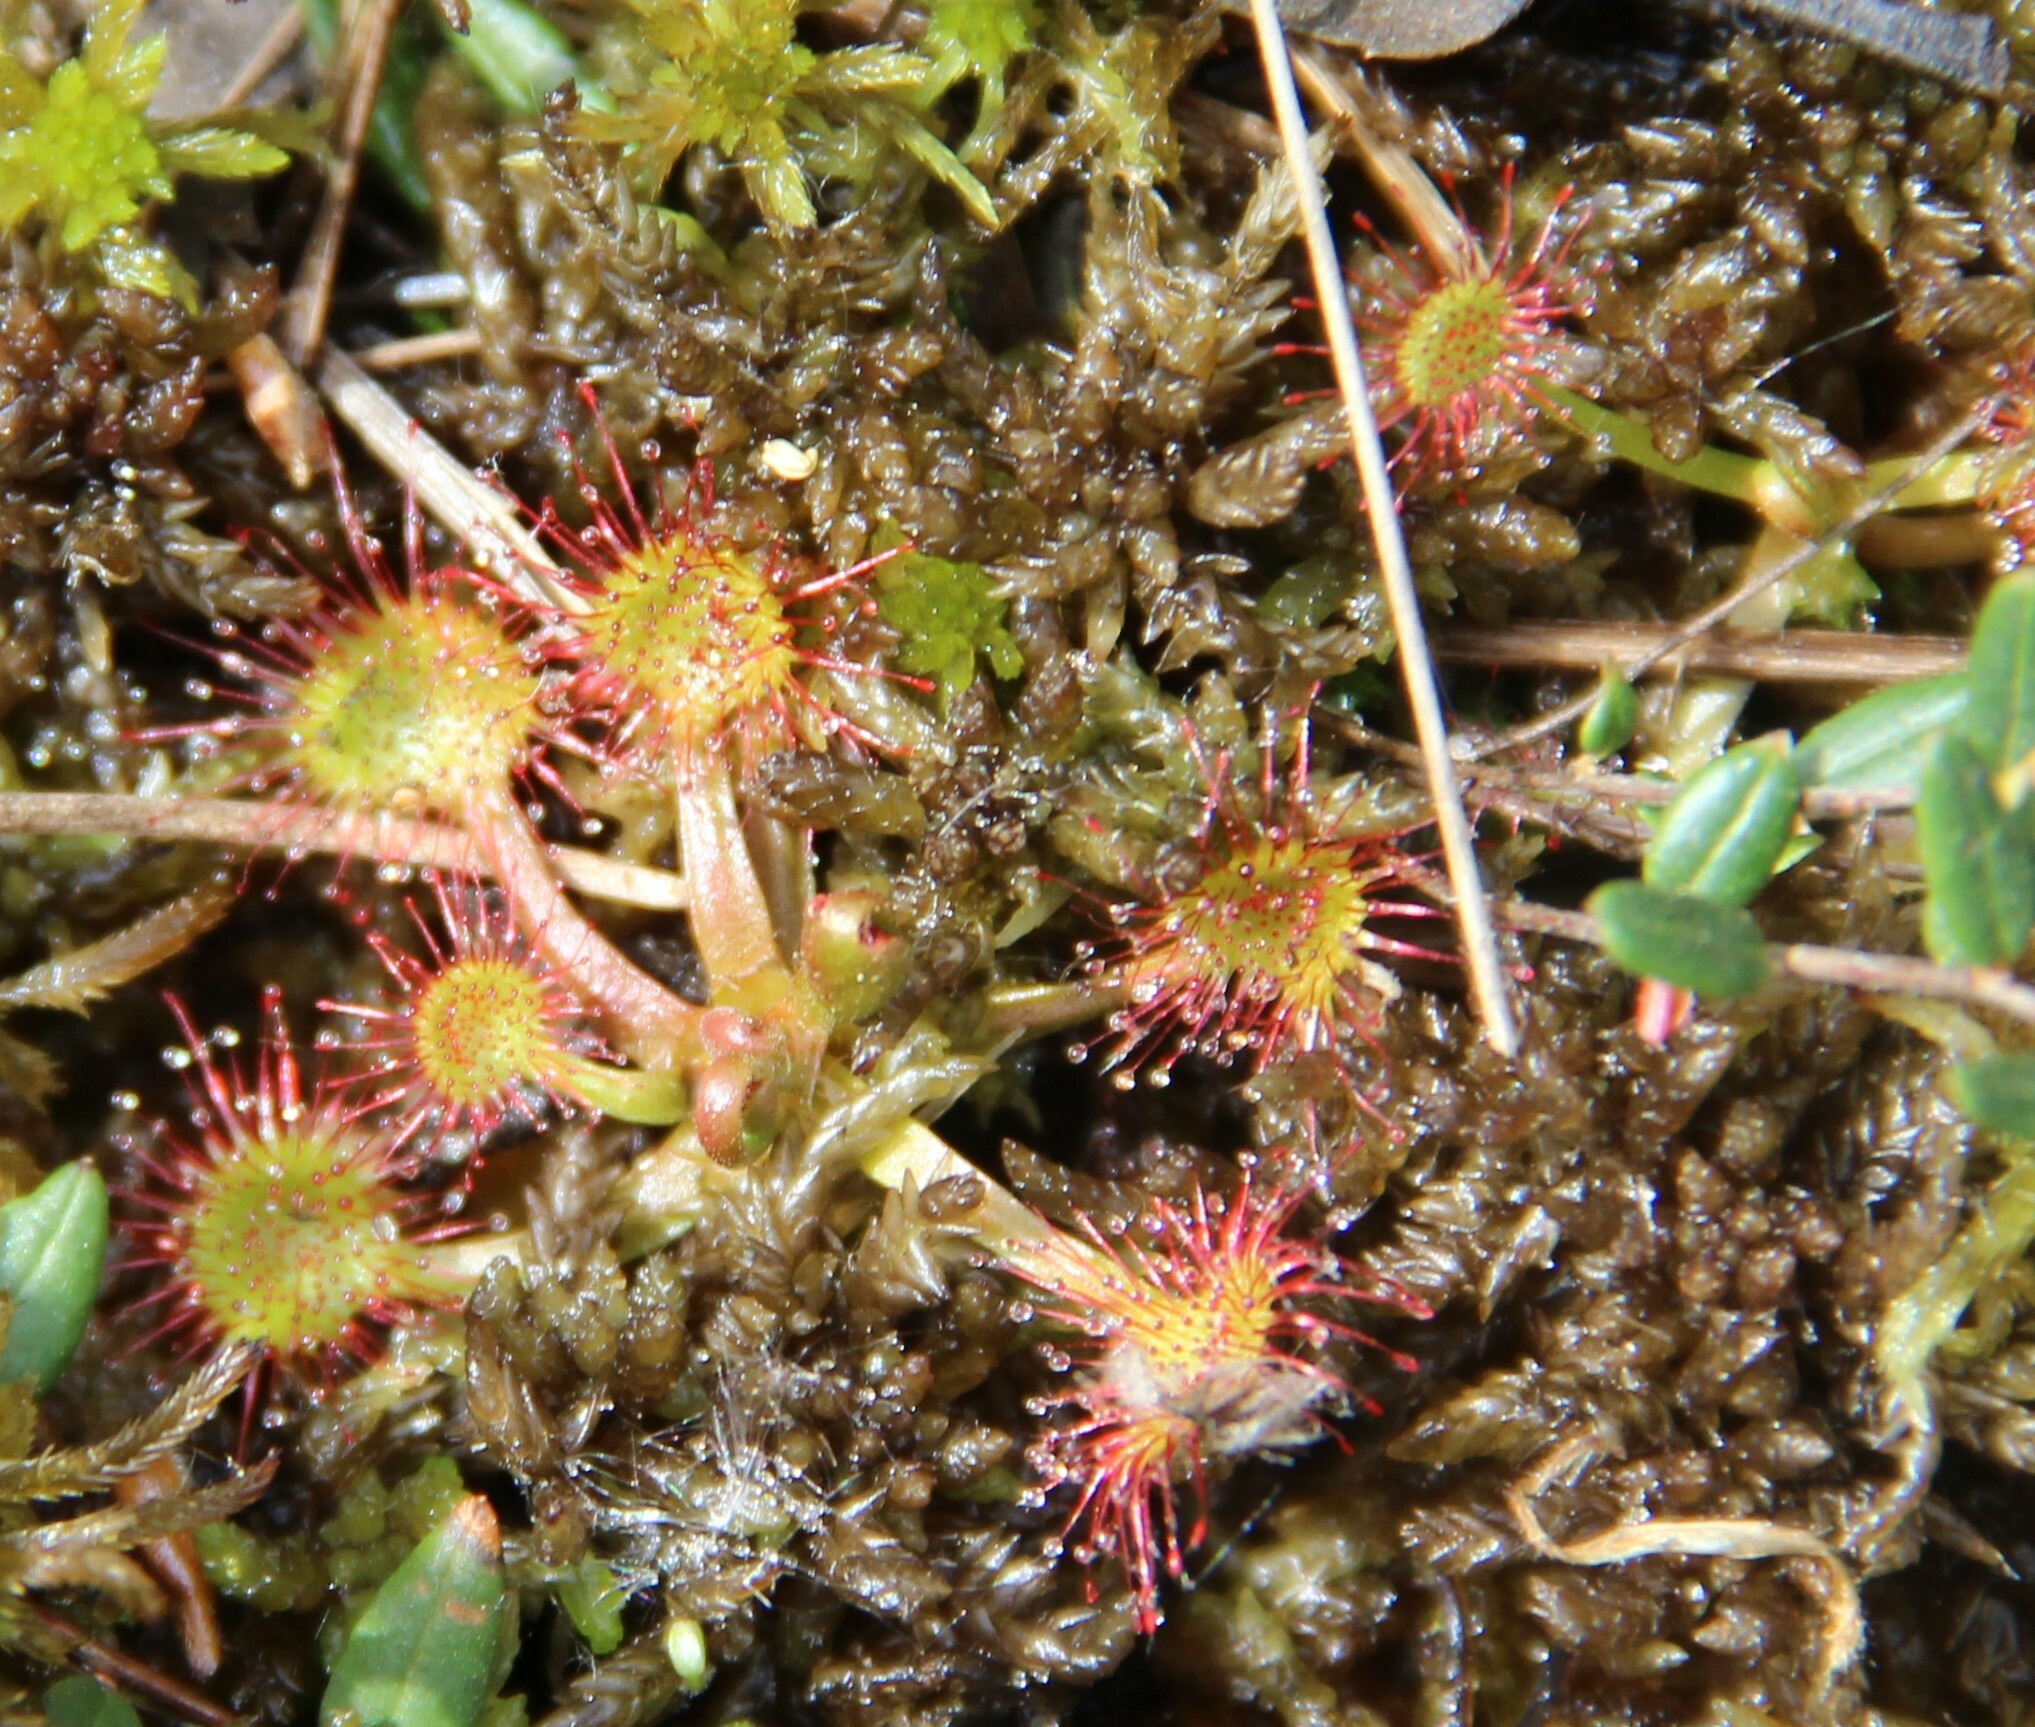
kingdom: Plantae
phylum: Tracheophyta
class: Magnoliopsida
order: Caryophyllales
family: Droseraceae
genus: Drosera
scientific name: Drosera rotundifolia
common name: Round-leaved sundew
